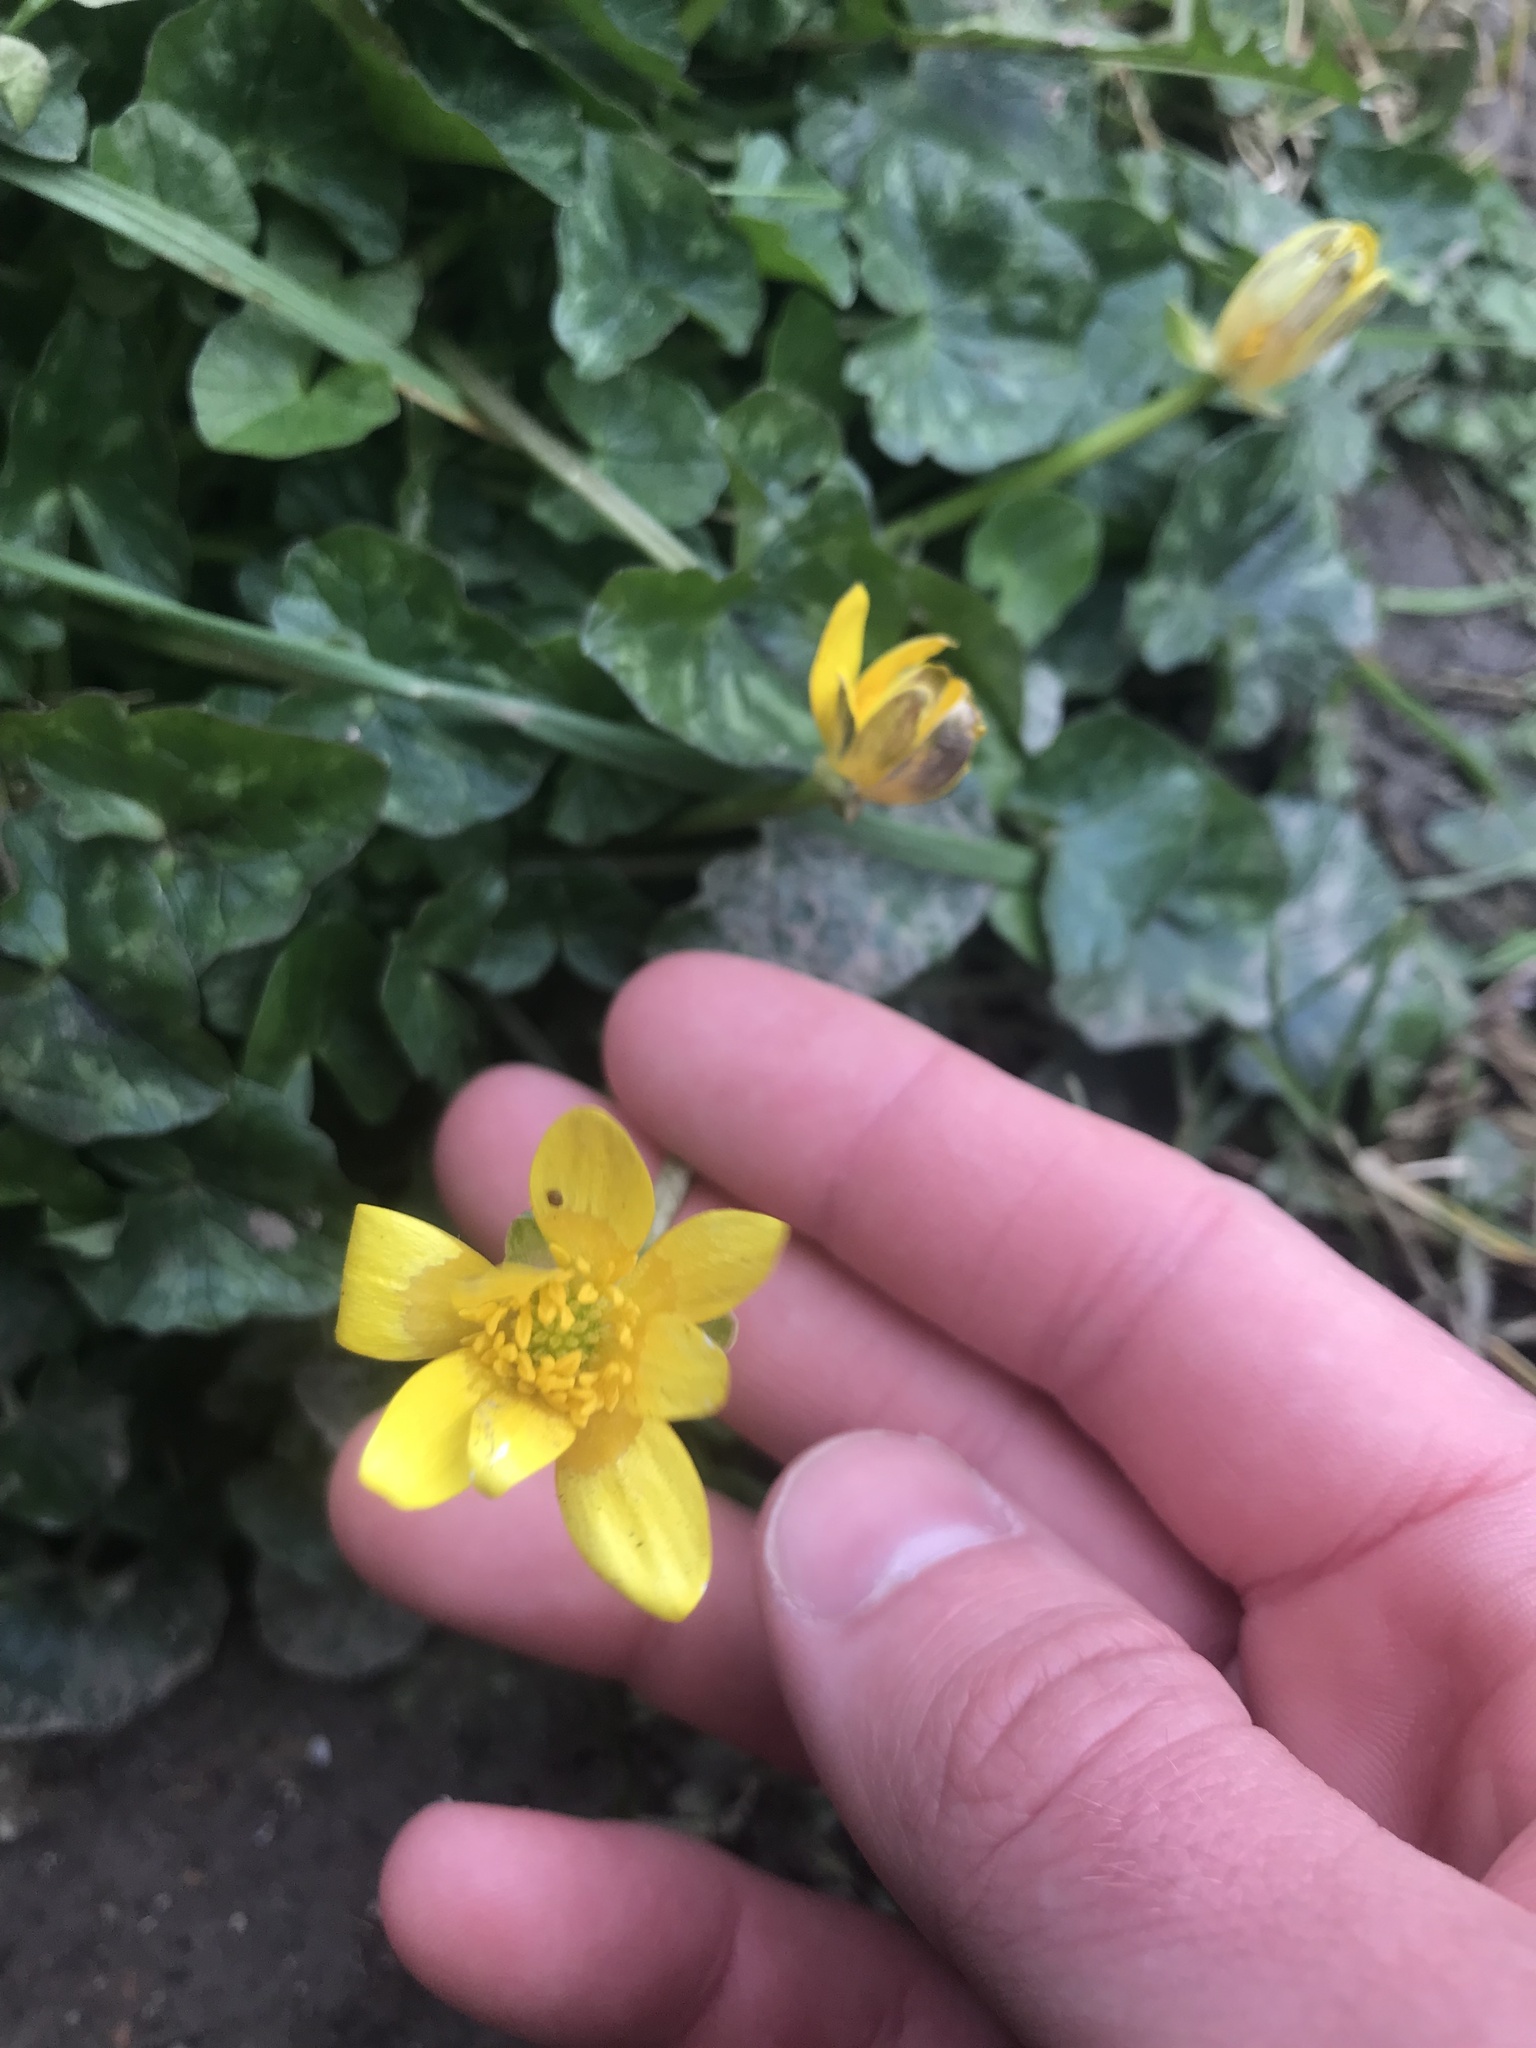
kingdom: Plantae
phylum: Tracheophyta
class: Magnoliopsida
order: Ranunculales
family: Ranunculaceae
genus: Ficaria
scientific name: Ficaria verna
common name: Lesser celandine
